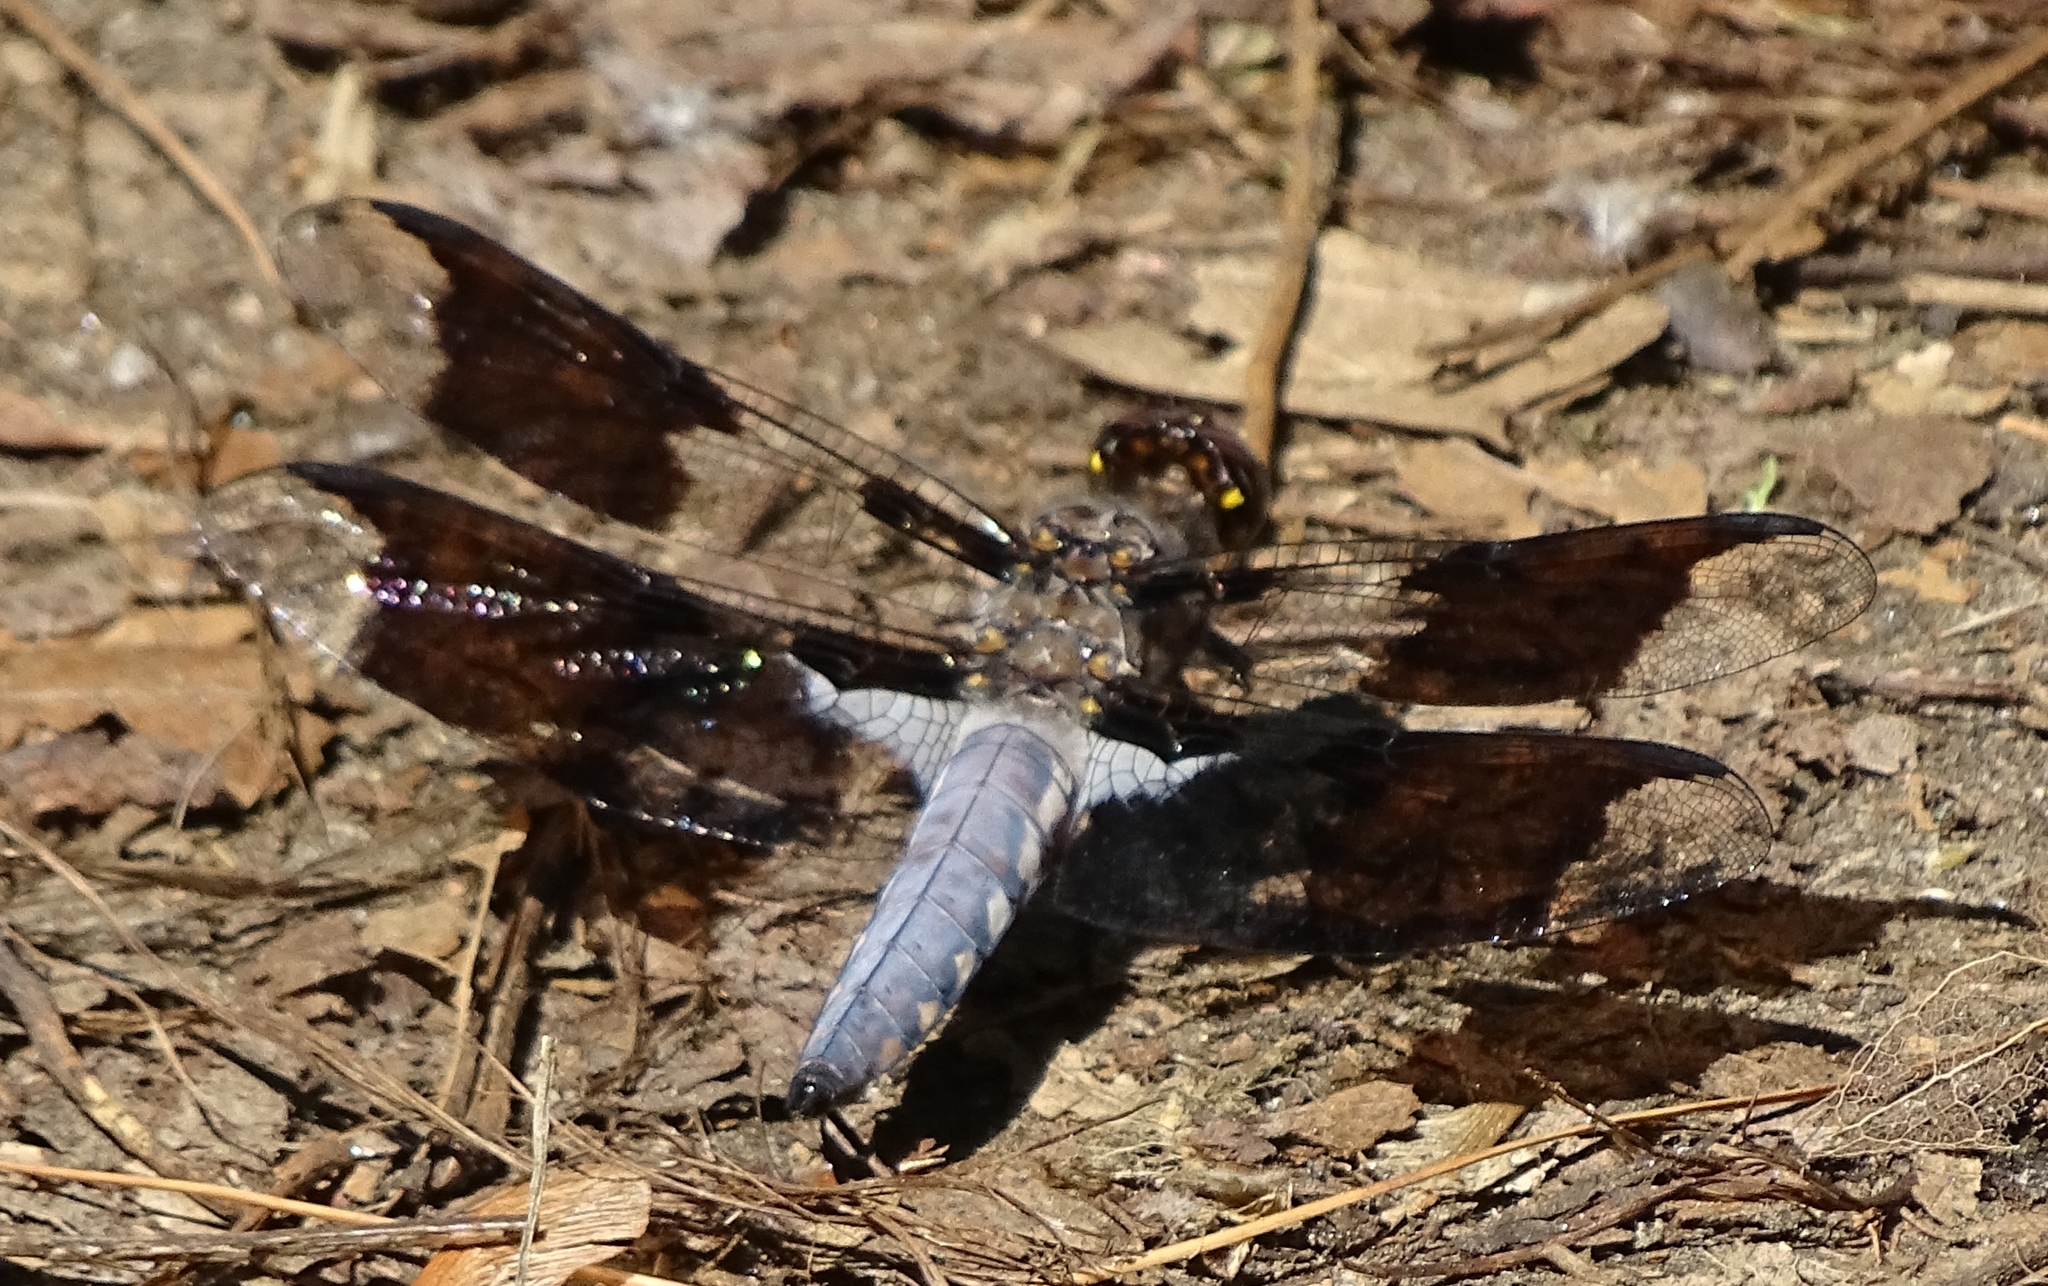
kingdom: Animalia
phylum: Arthropoda
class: Insecta
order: Odonata
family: Libellulidae
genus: Plathemis
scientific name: Plathemis lydia
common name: Common whitetail
